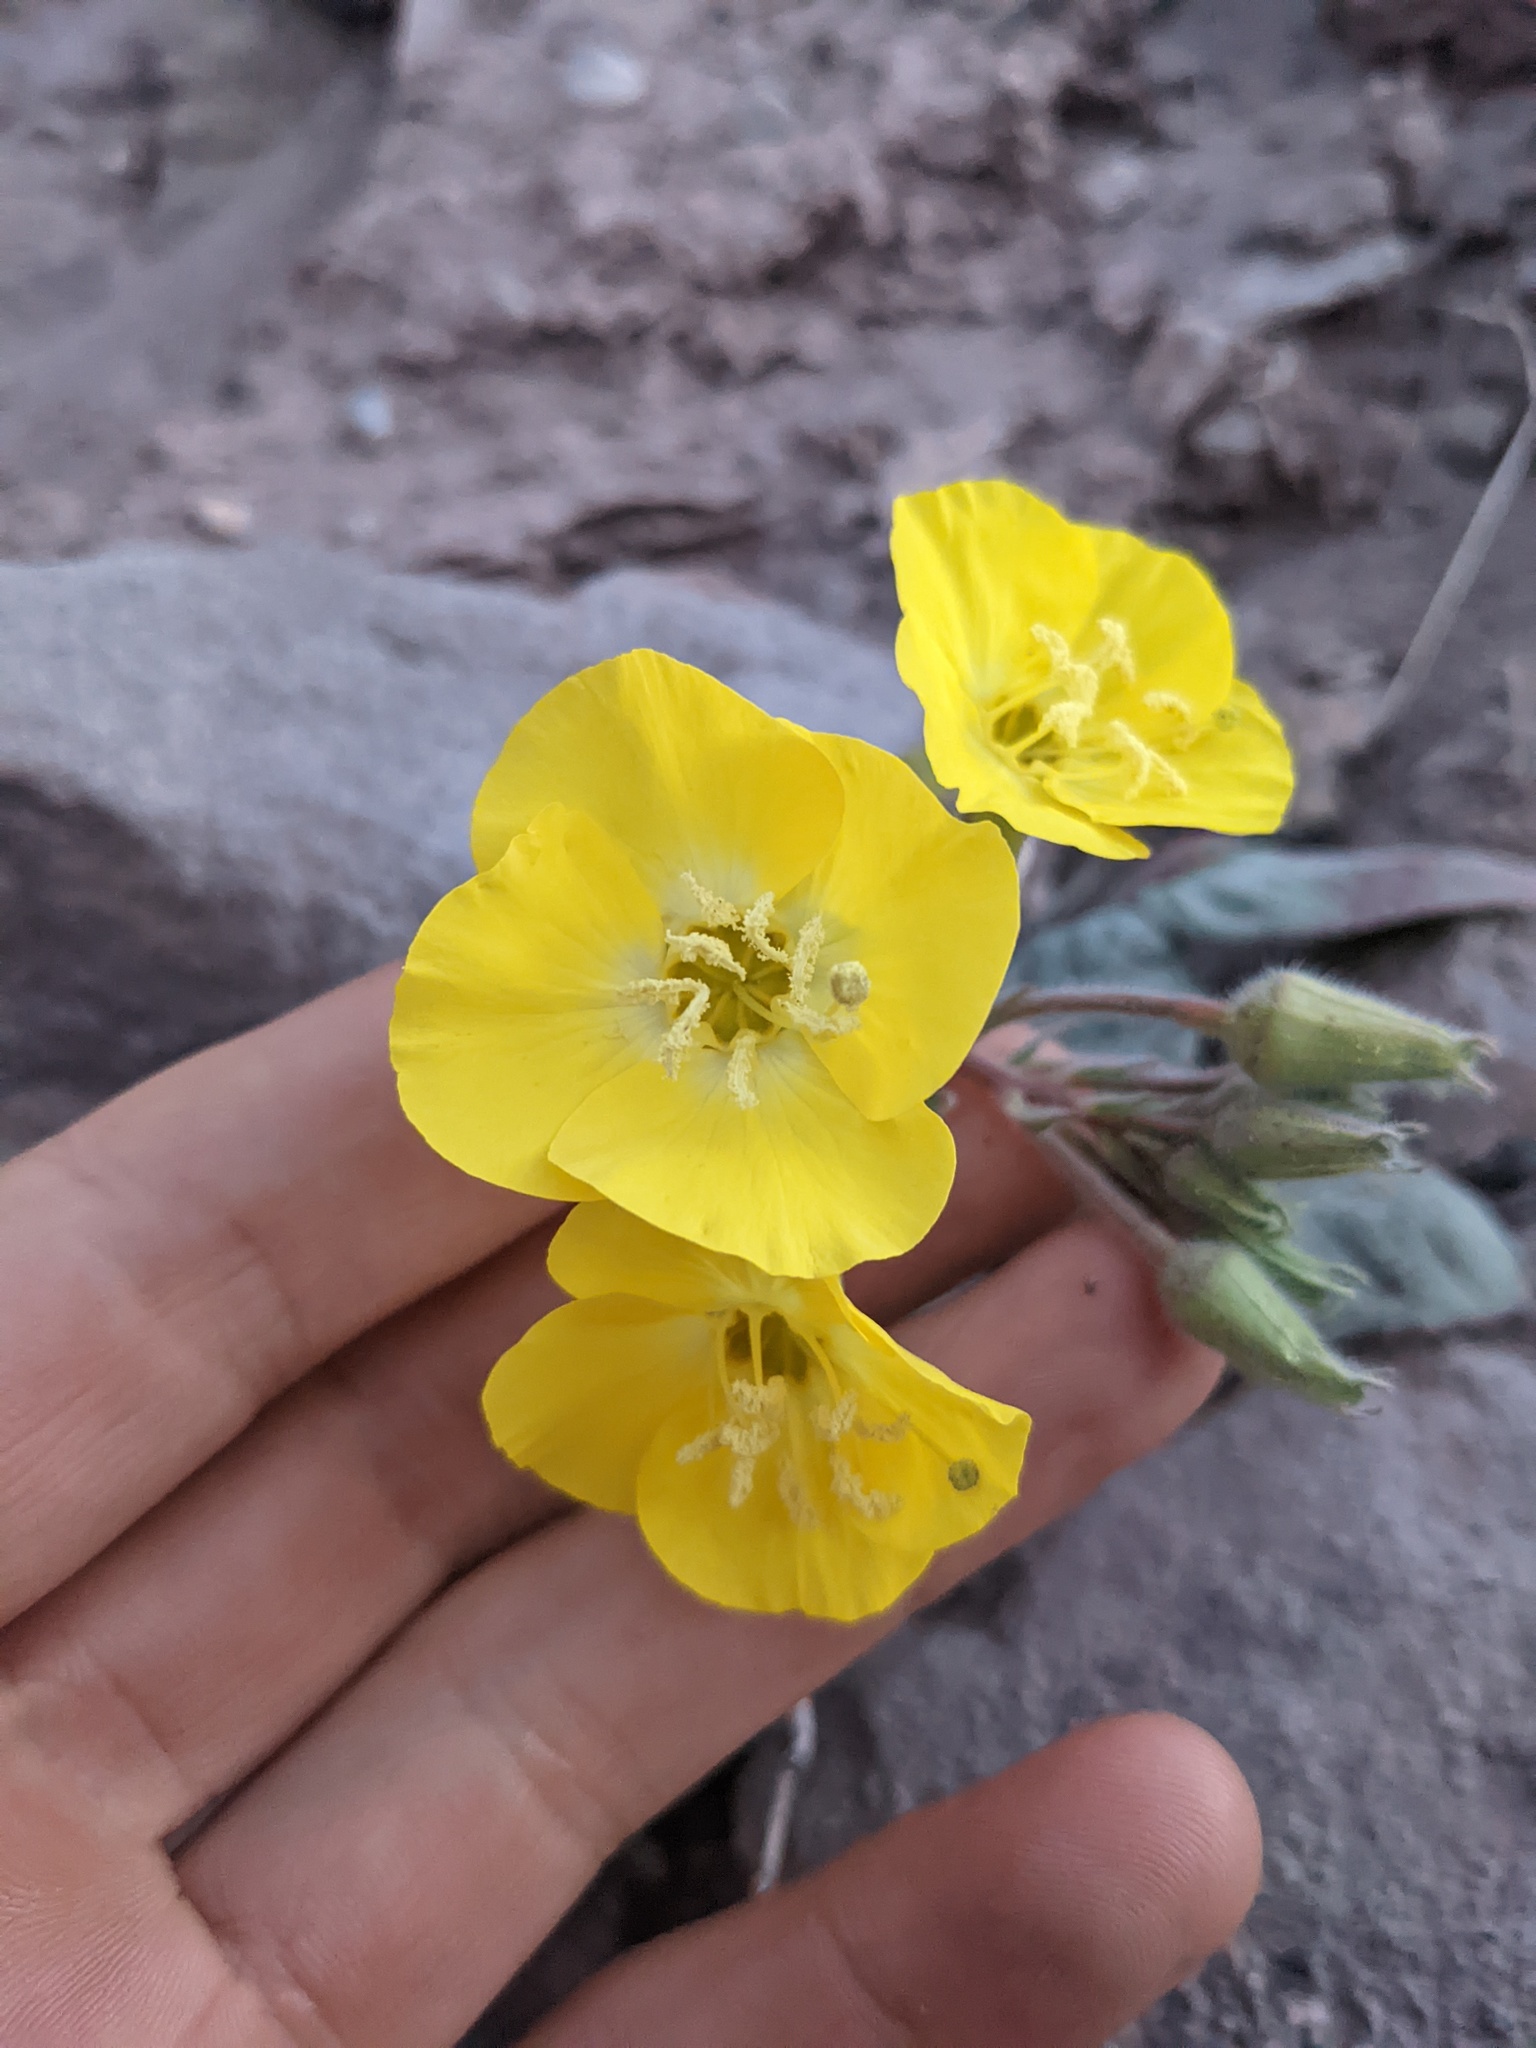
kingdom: Plantae
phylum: Tracheophyta
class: Magnoliopsida
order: Myrtales
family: Onagraceae
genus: Chylismia
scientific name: Chylismia brevipes
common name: Yellow cups
